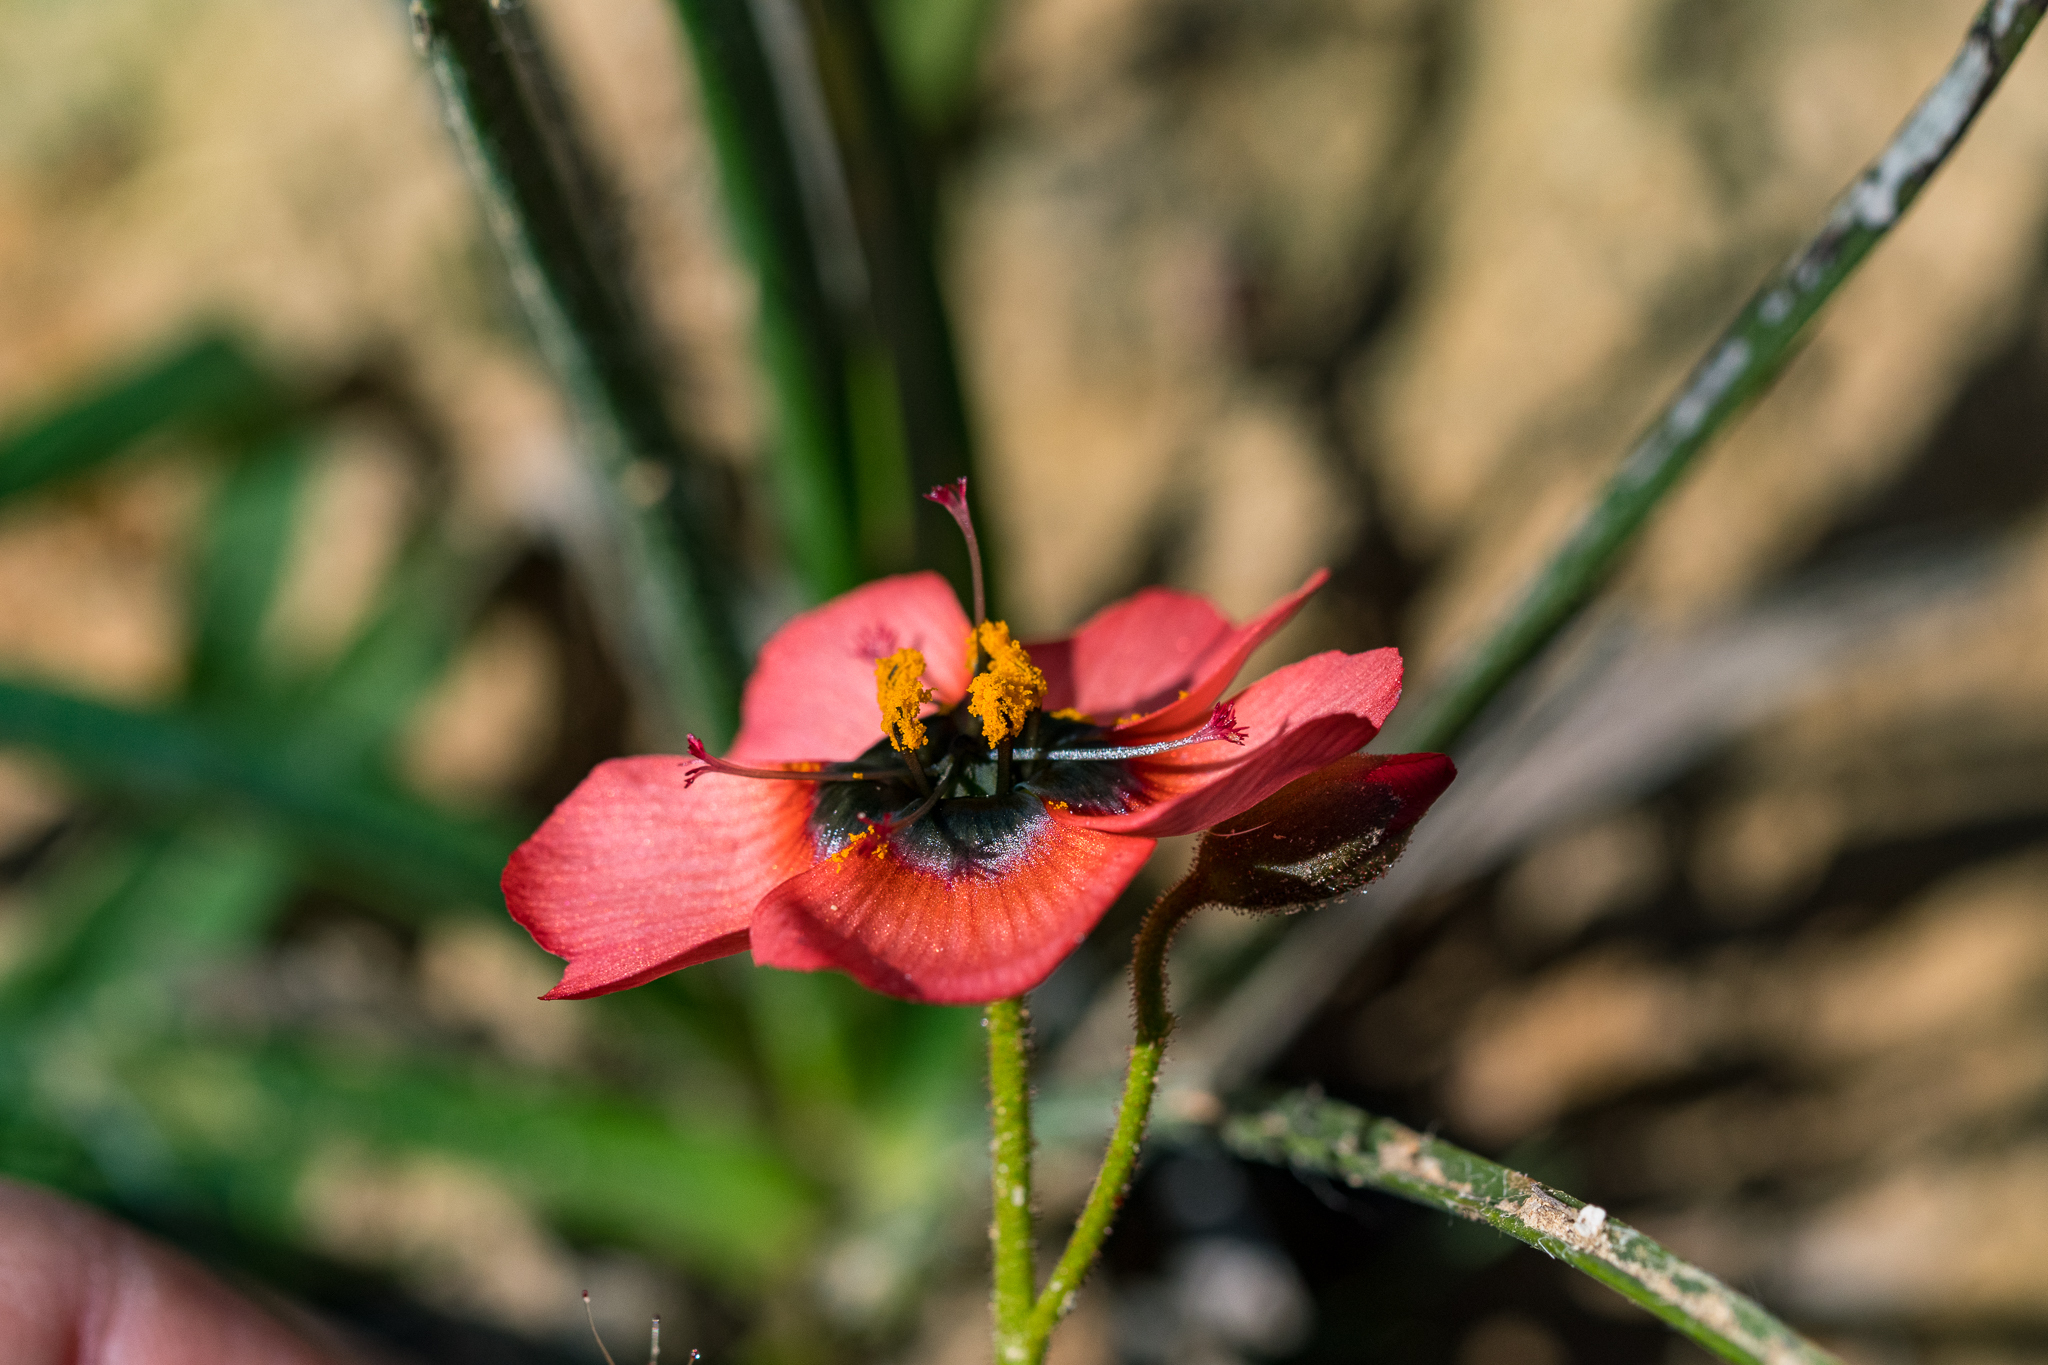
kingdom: Plantae
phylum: Tracheophyta
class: Magnoliopsida
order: Caryophyllales
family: Droseraceae
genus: Drosera
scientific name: Drosera cistiflora
